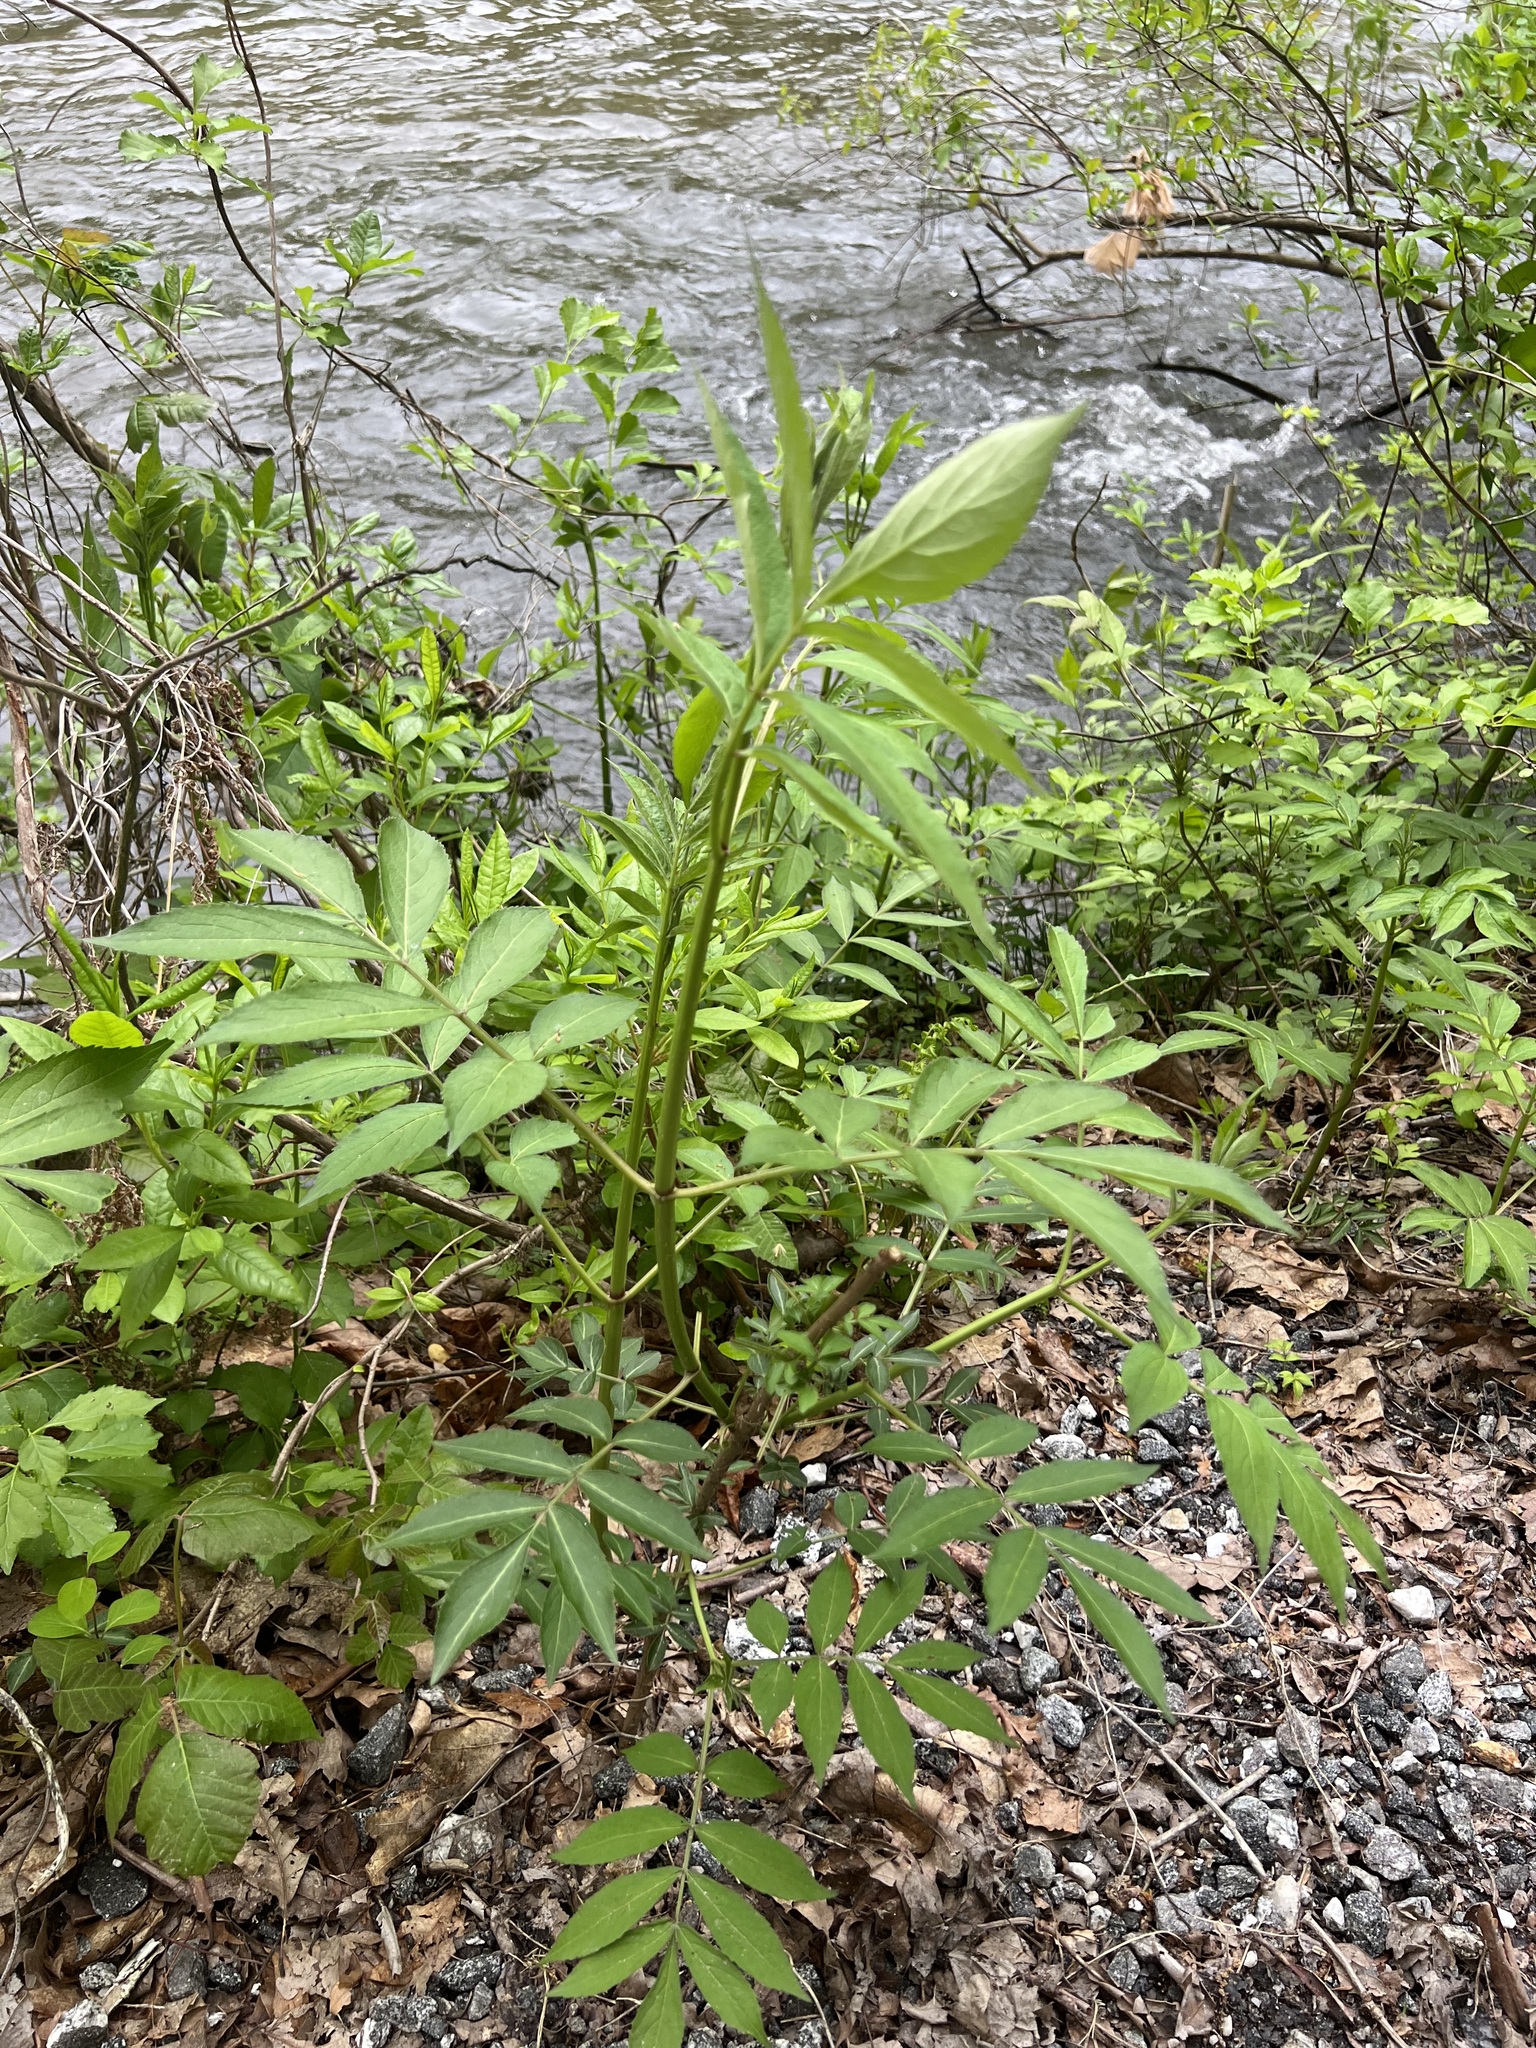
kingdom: Plantae
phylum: Tracheophyta
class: Magnoliopsida
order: Dipsacales
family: Viburnaceae
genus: Sambucus
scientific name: Sambucus canadensis
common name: American elder
